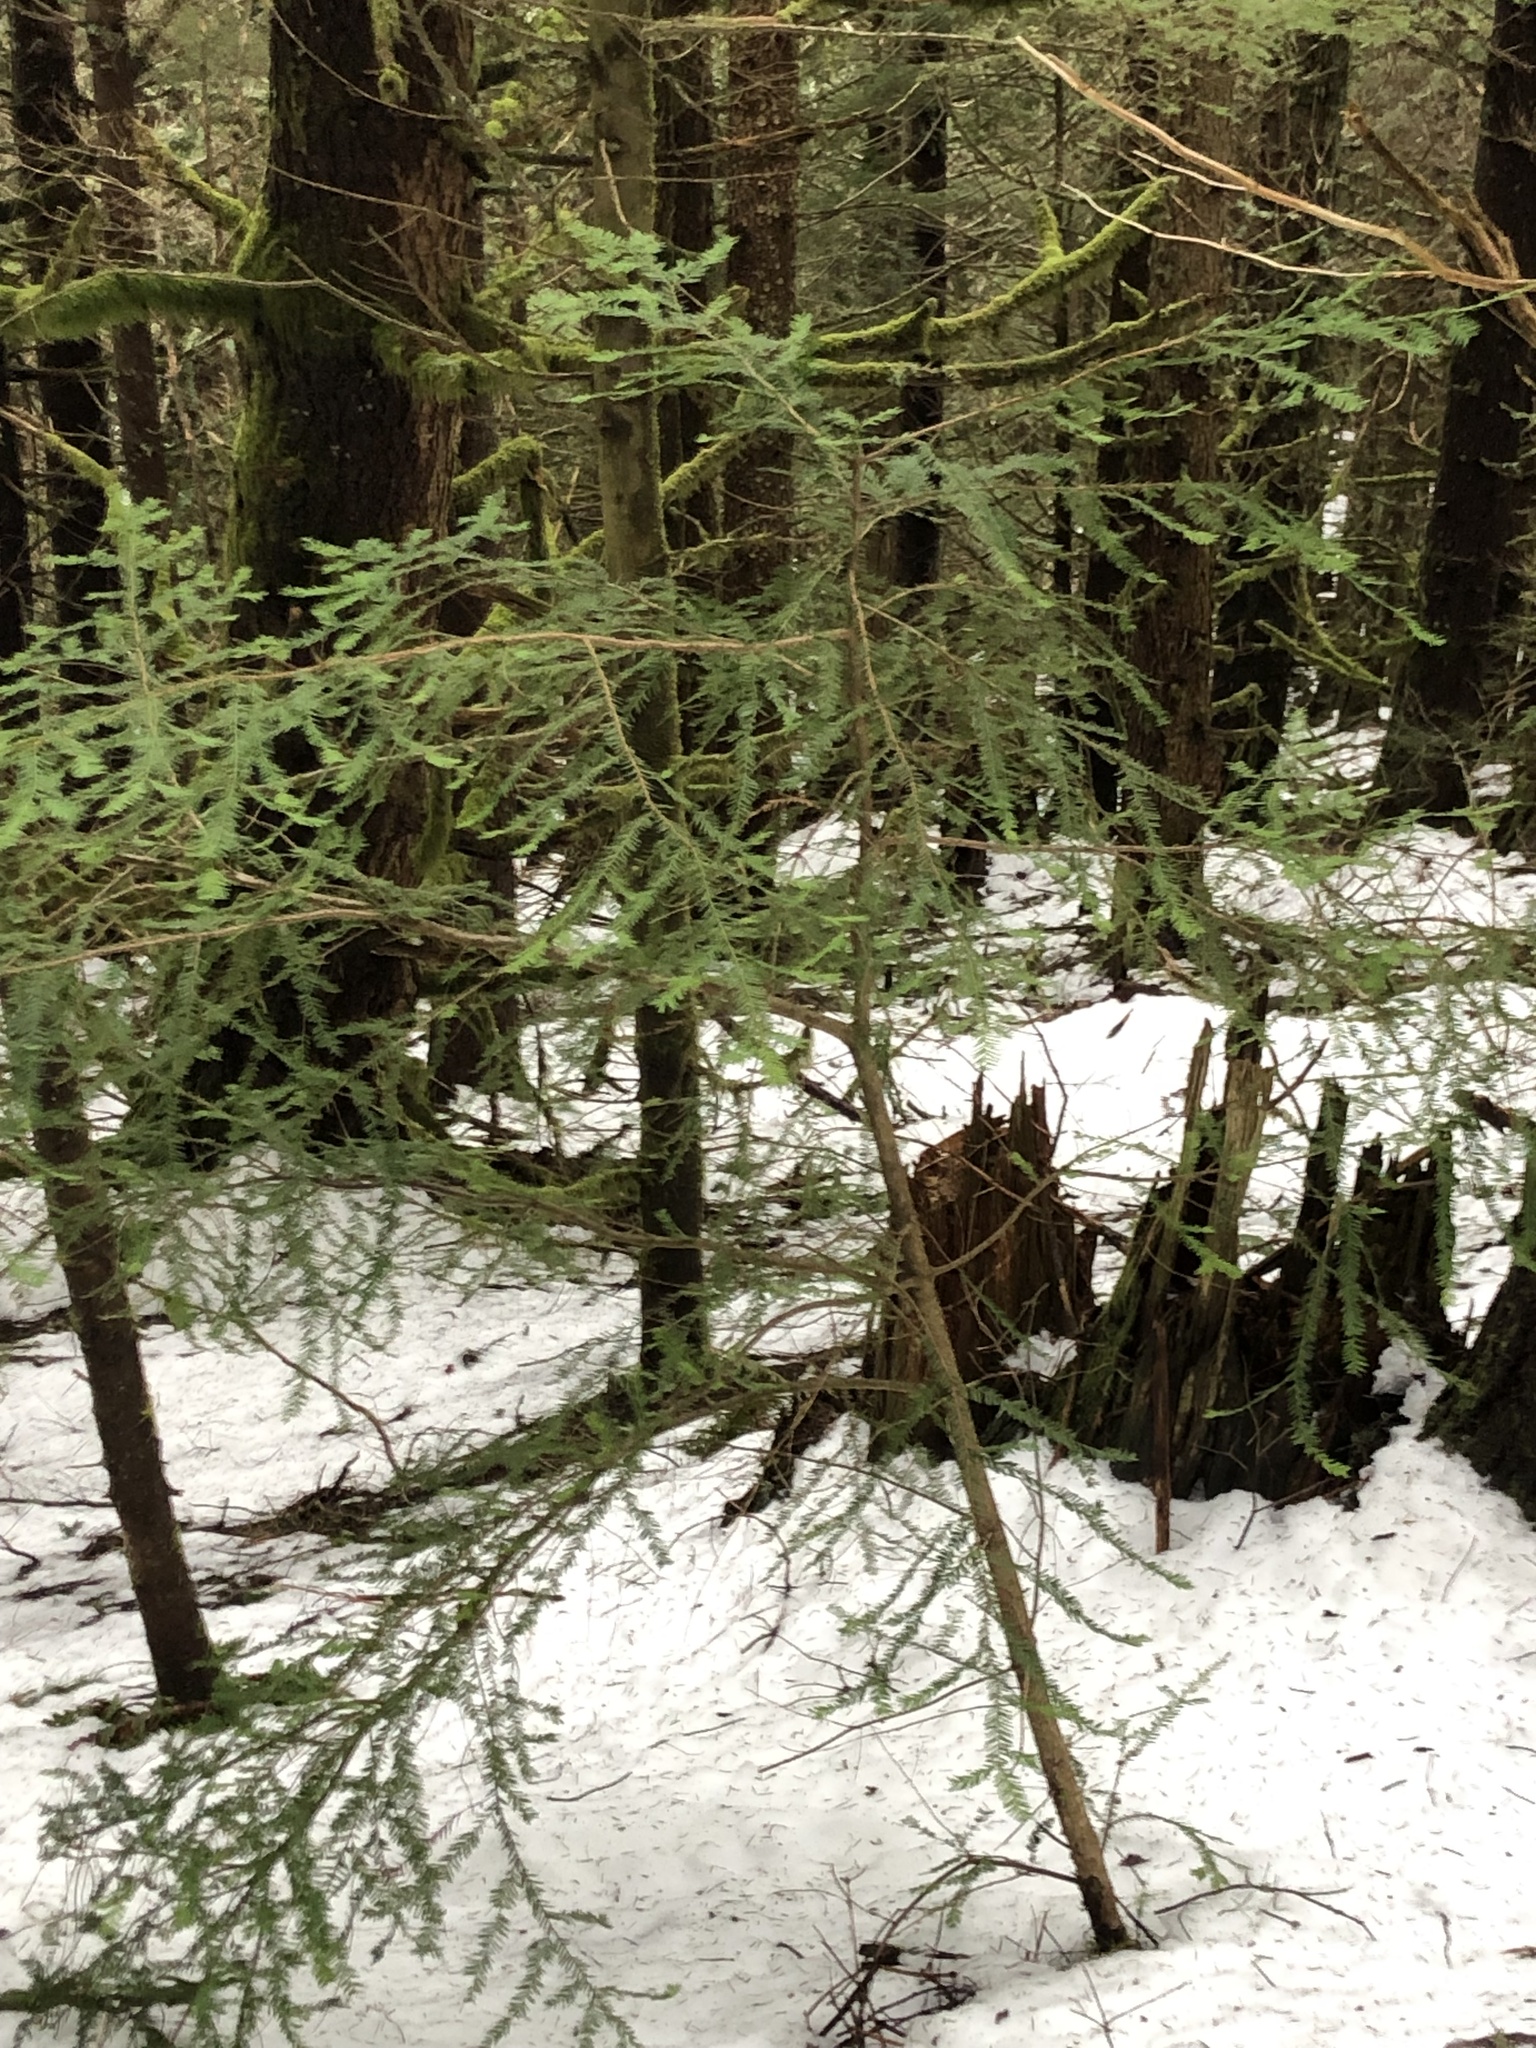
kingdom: Plantae
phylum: Tracheophyta
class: Pinopsida
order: Pinales
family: Taxaceae
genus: Taxus
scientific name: Taxus brevifolia
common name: Pacific yew
